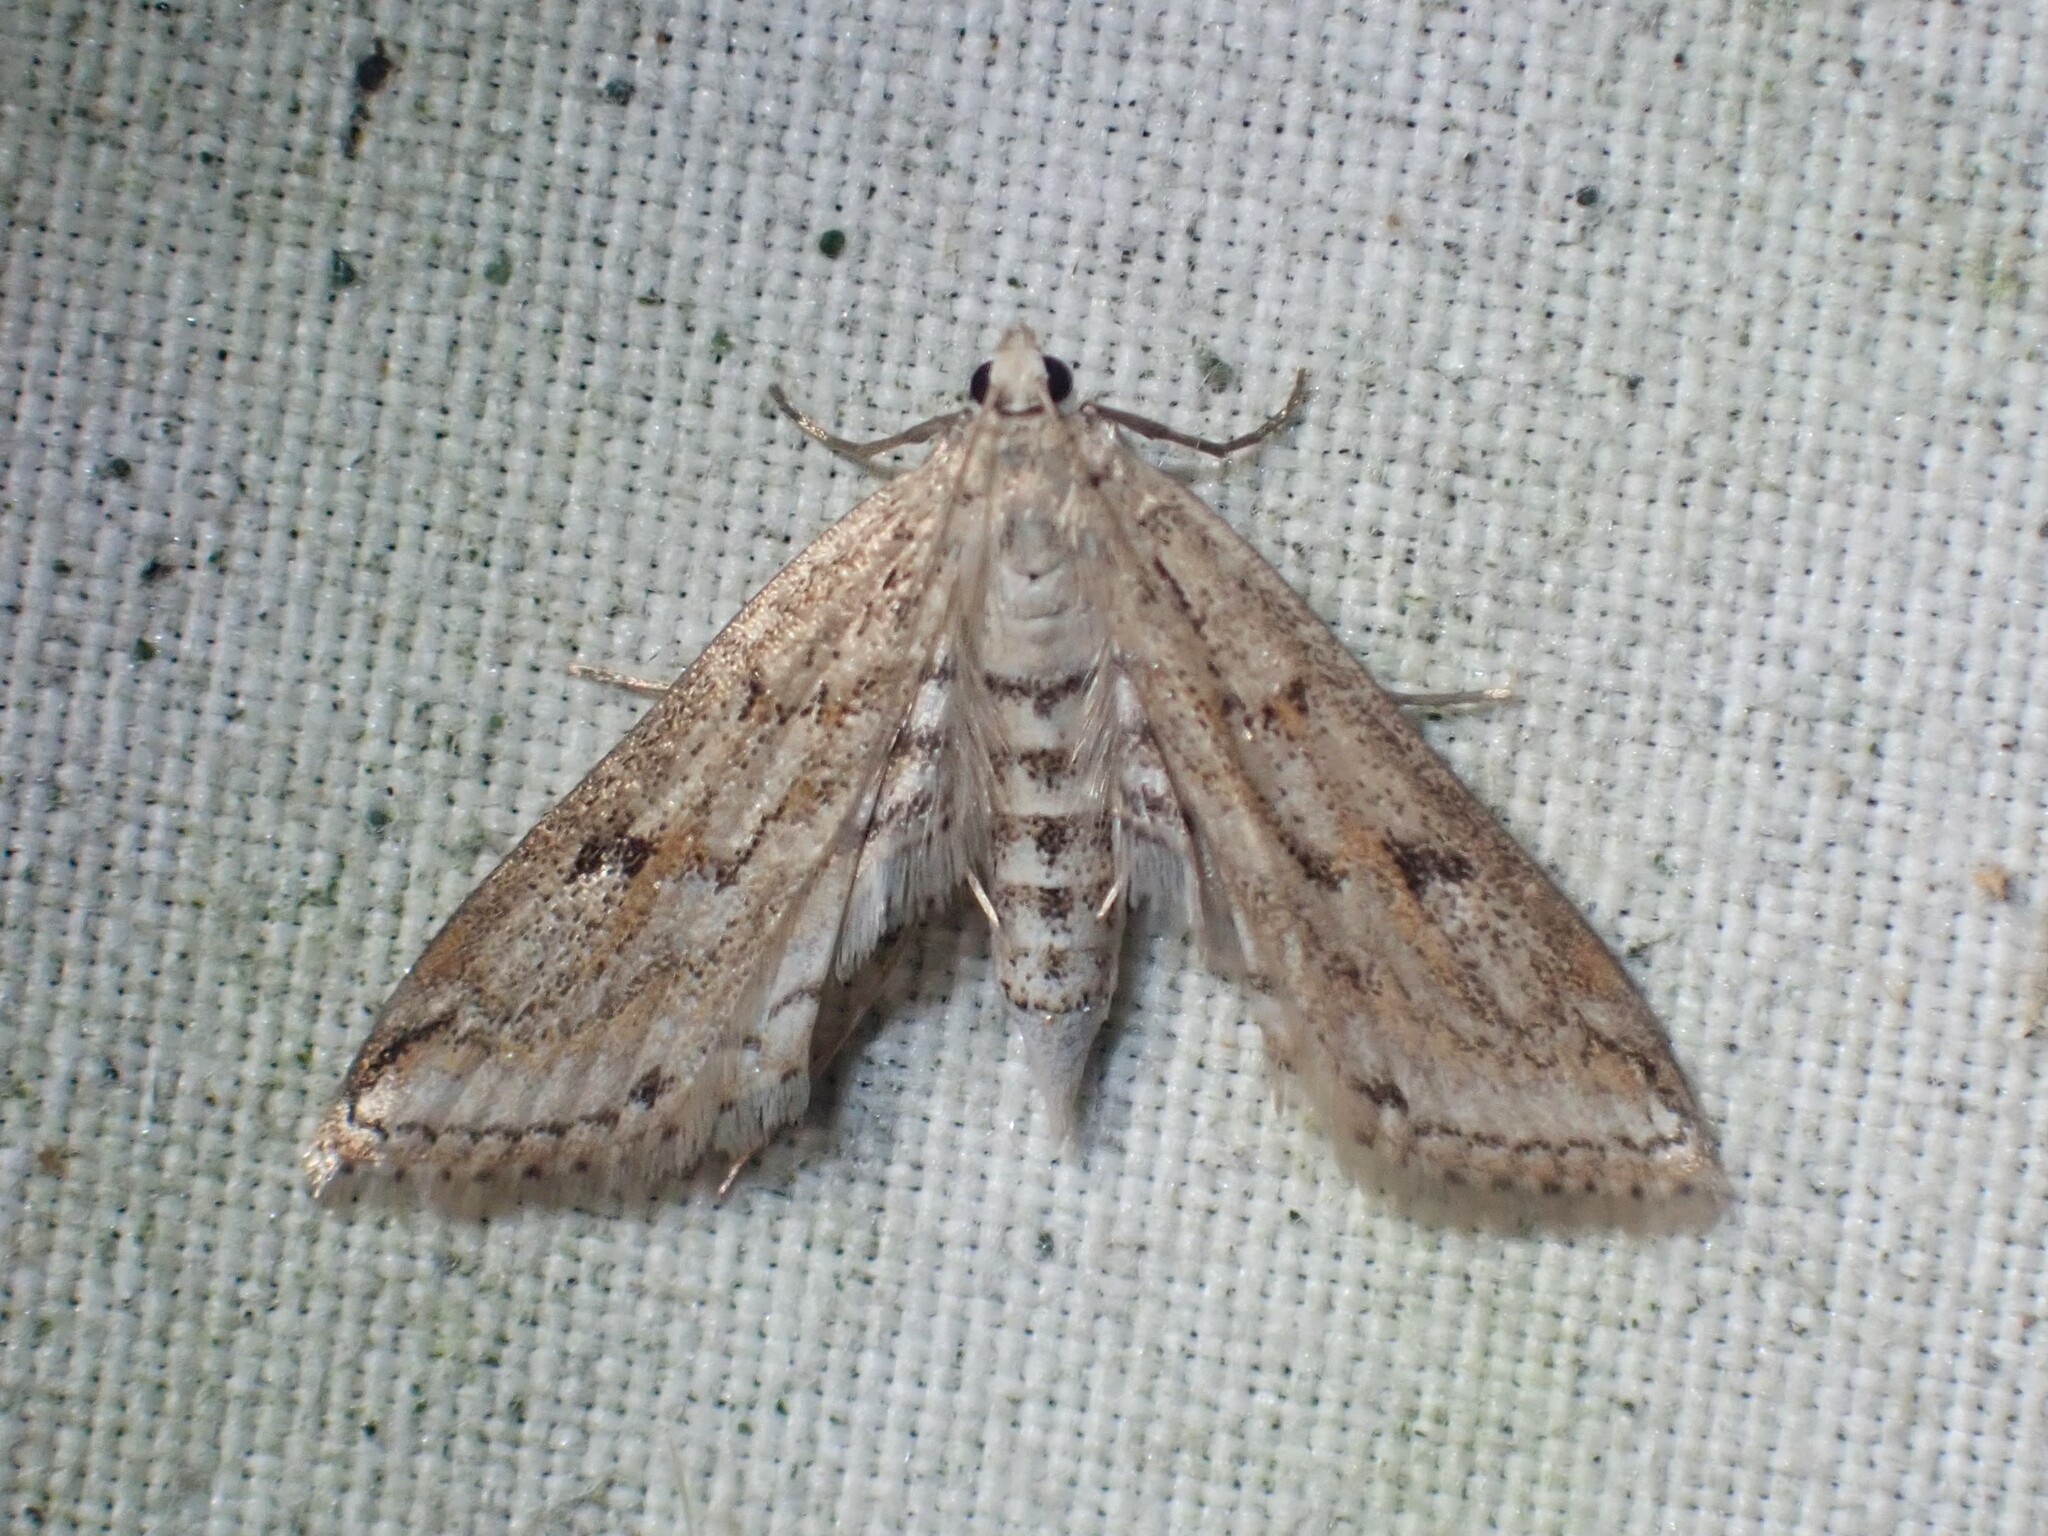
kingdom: Animalia
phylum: Arthropoda
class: Insecta
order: Lepidoptera
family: Crambidae
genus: Parapoynx
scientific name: Parapoynx allionealis
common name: Bladderwort casemaker
